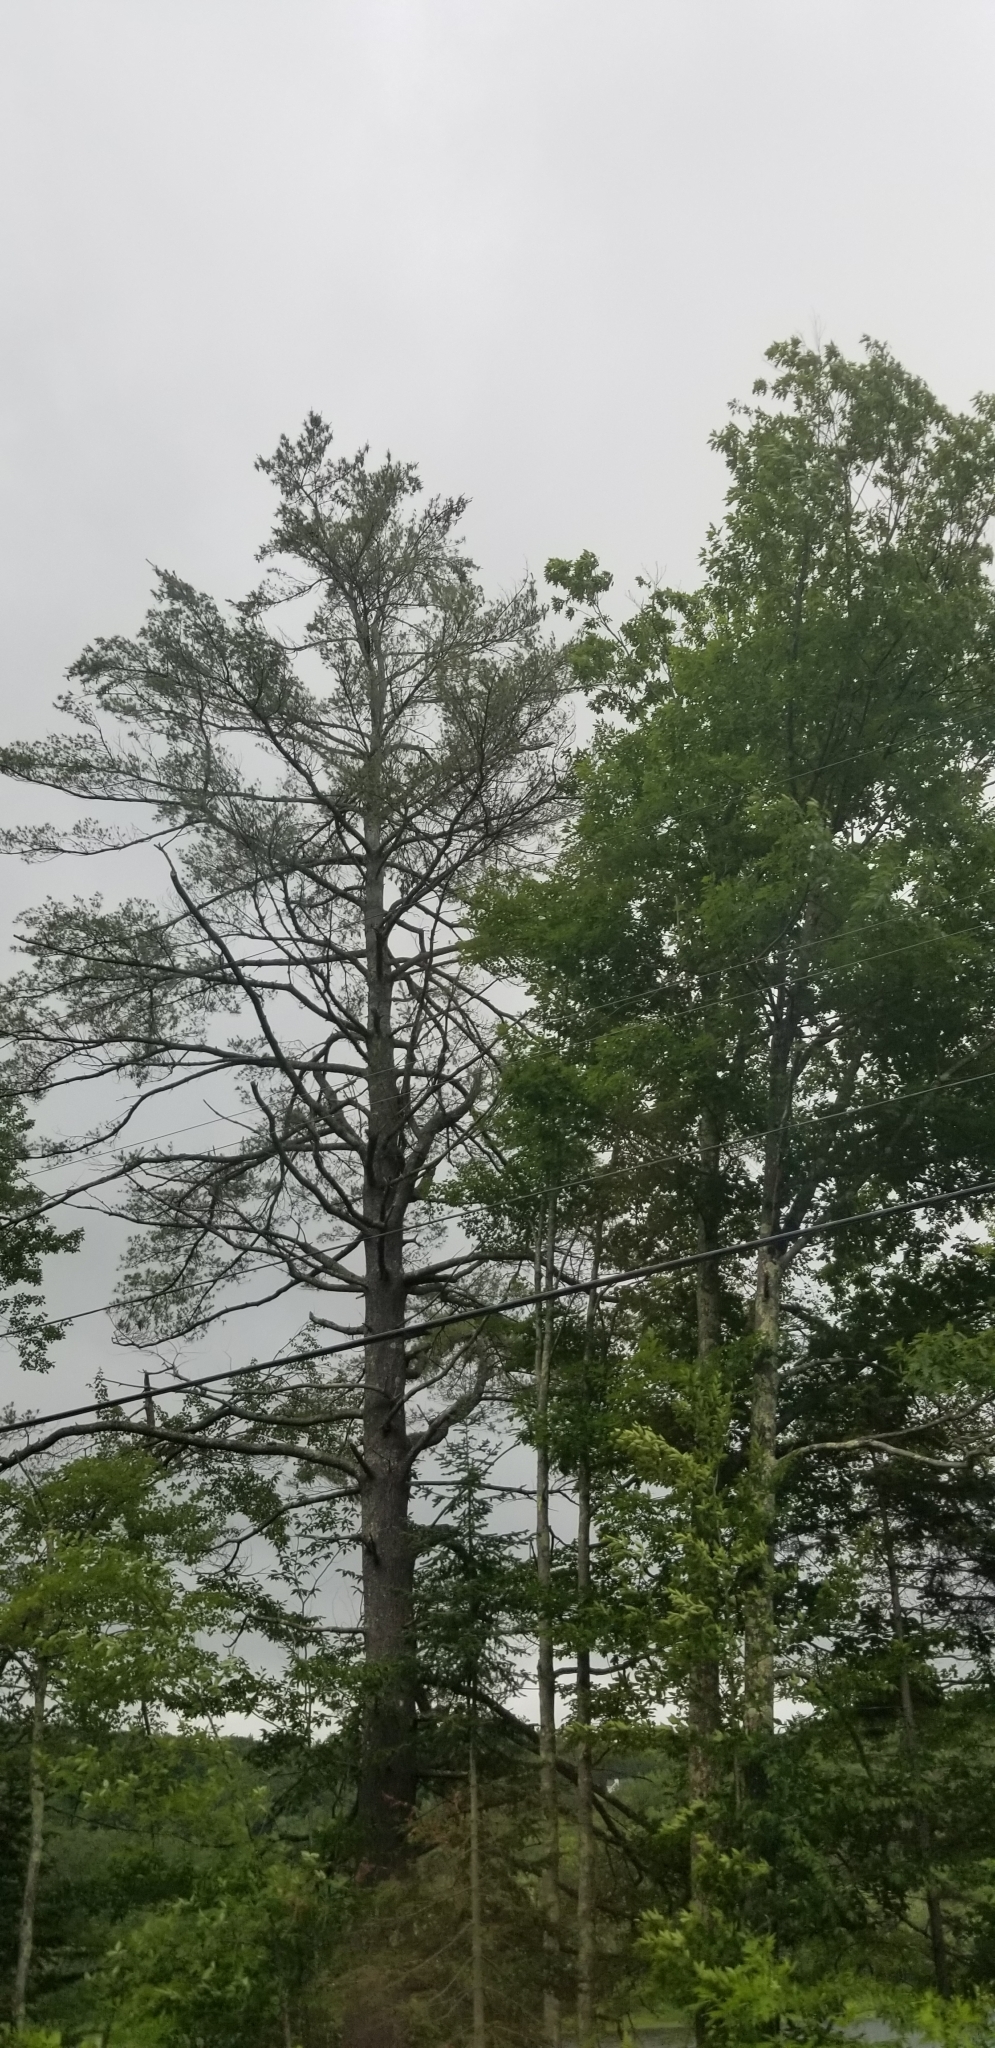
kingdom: Plantae
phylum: Tracheophyta
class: Pinopsida
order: Pinales
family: Pinaceae
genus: Pinus
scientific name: Pinus strobus
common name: Weymouth pine
